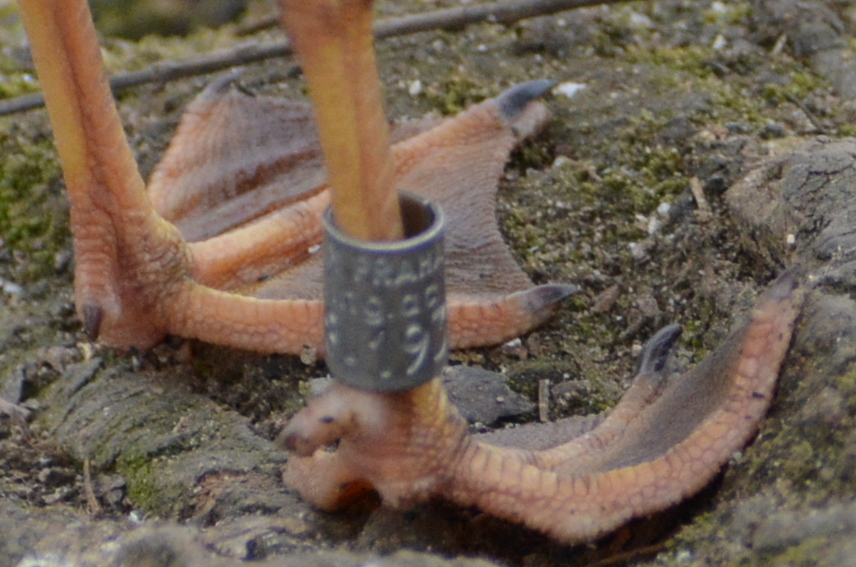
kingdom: Animalia
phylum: Chordata
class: Aves
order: Charadriiformes
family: Laridae
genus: Chroicocephalus
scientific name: Chroicocephalus ridibundus
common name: Black-headed gull
